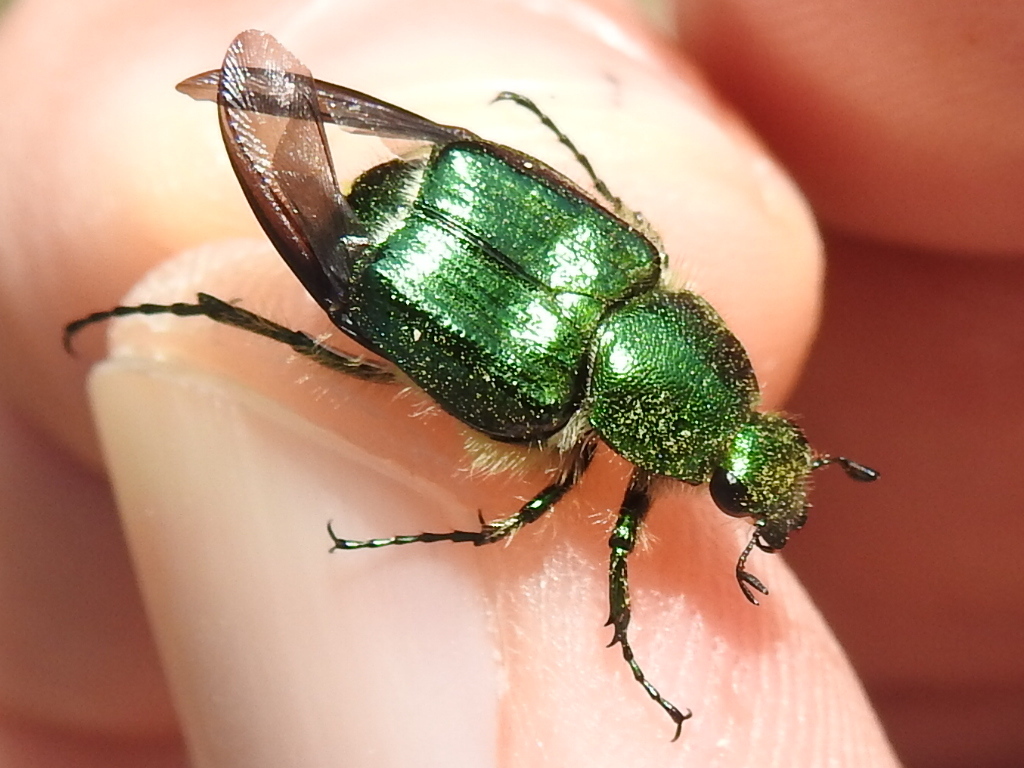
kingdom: Animalia
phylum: Arthropoda
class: Insecta
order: Coleoptera
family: Scarabaeidae
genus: Trichiotinus
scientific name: Trichiotinus lunulatus
